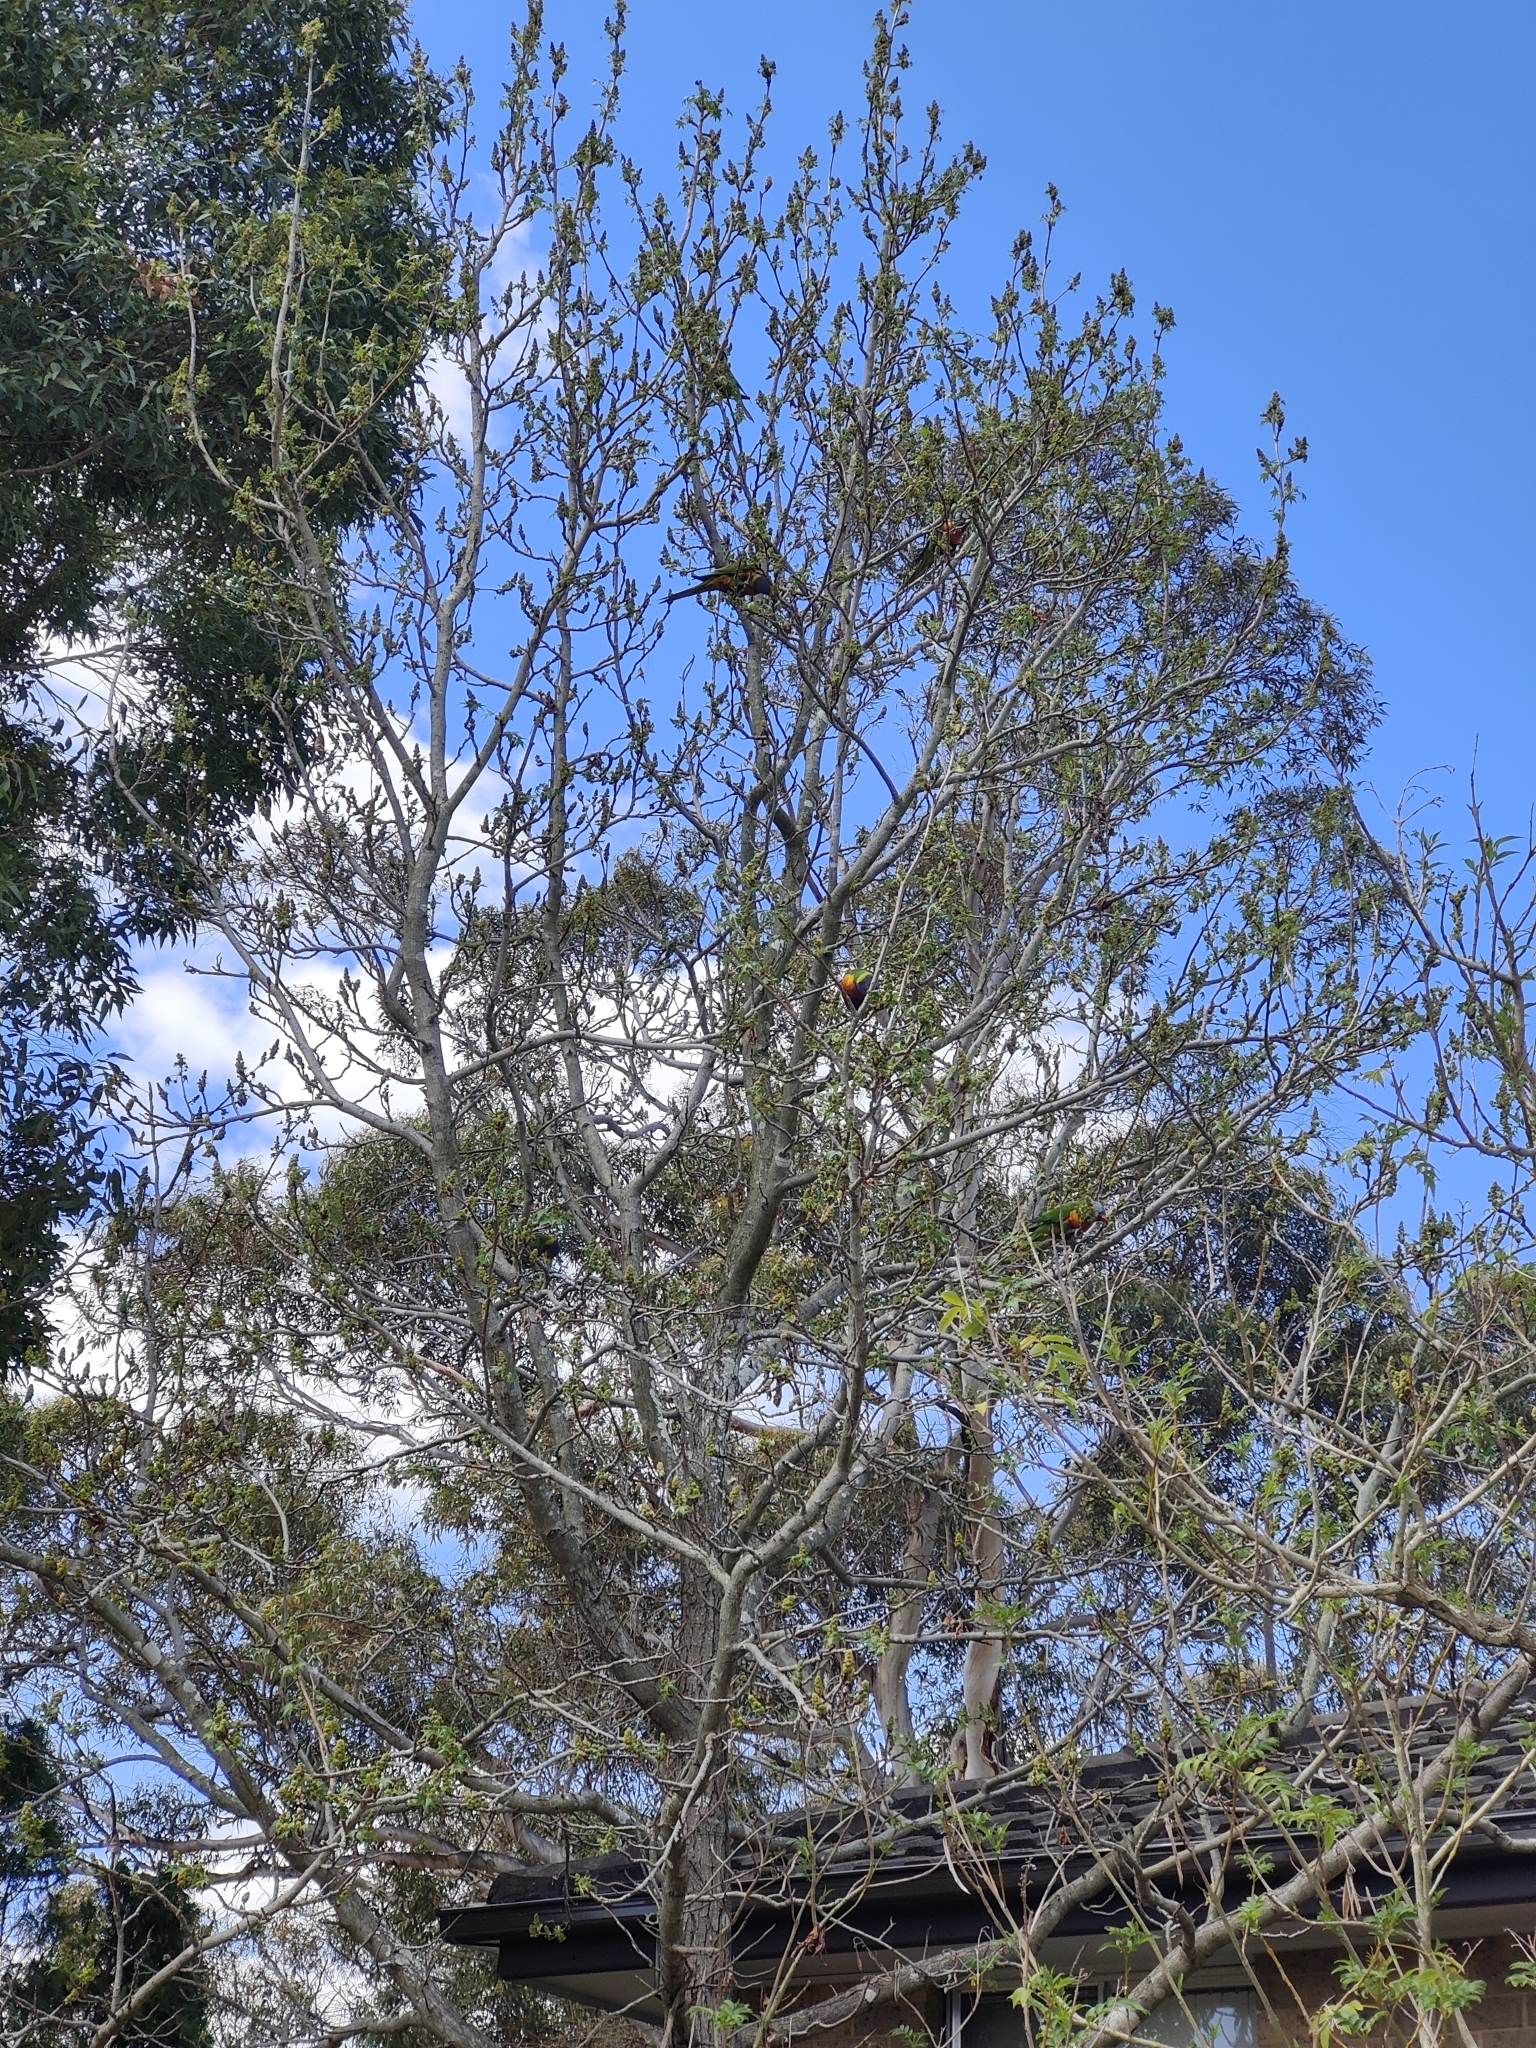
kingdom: Animalia
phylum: Chordata
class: Aves
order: Psittaciformes
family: Psittacidae
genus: Trichoglossus
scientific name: Trichoglossus haematodus
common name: Coconut lorikeet
